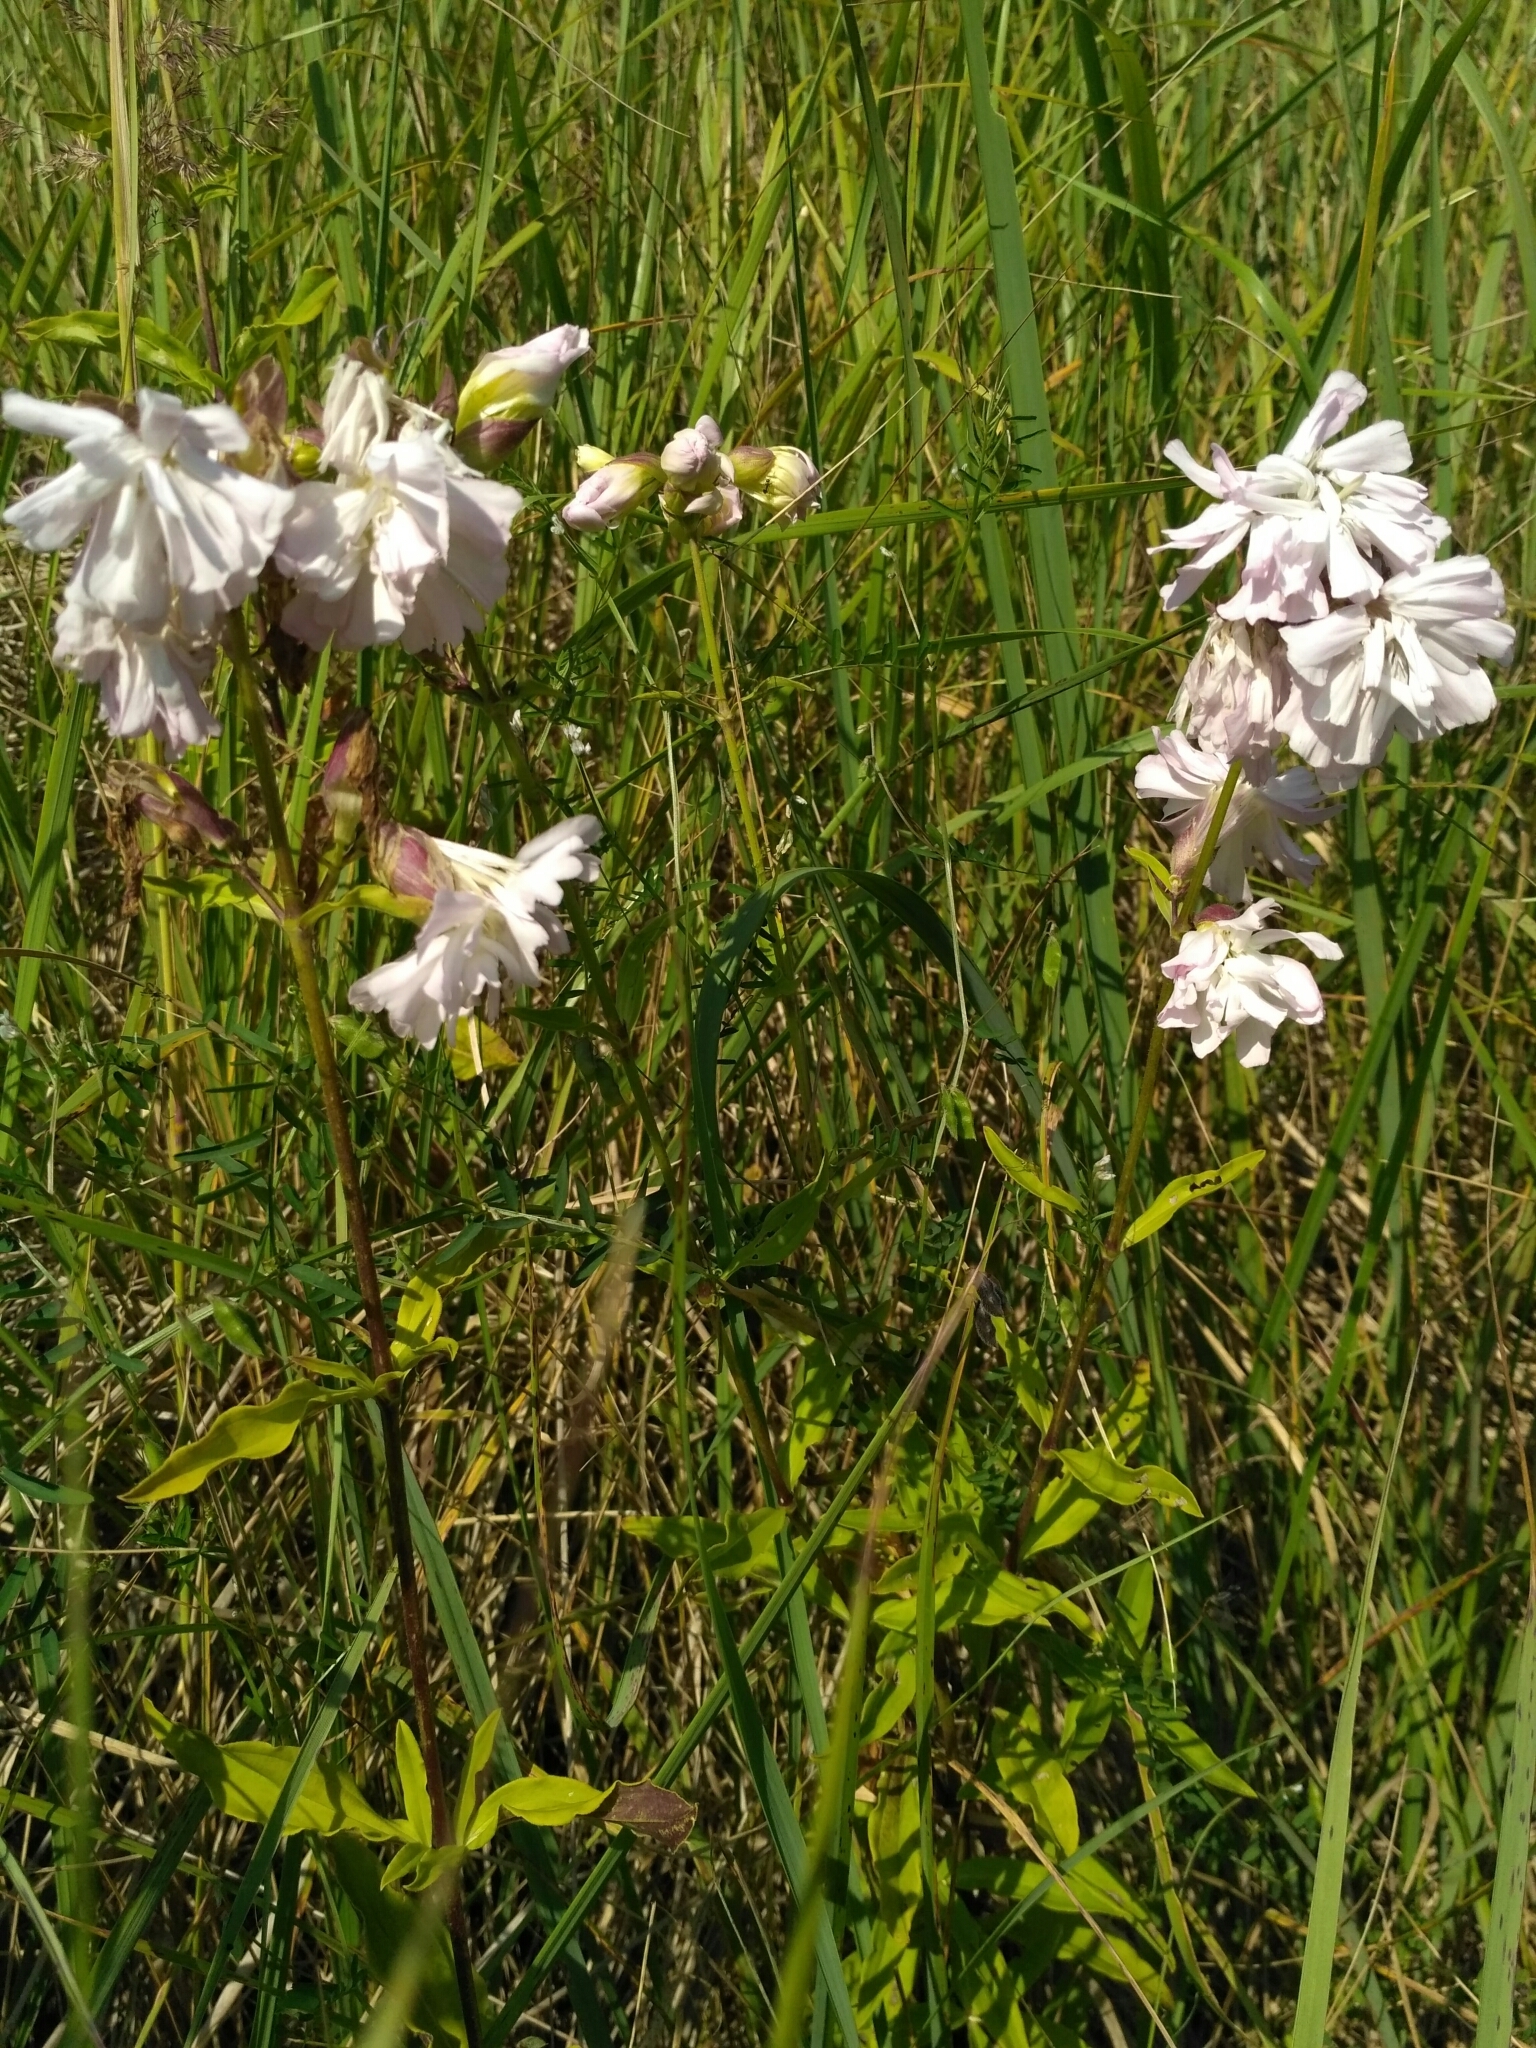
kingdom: Plantae
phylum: Tracheophyta
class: Magnoliopsida
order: Caryophyllales
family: Caryophyllaceae
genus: Saponaria
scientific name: Saponaria officinalis
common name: Soapwort
